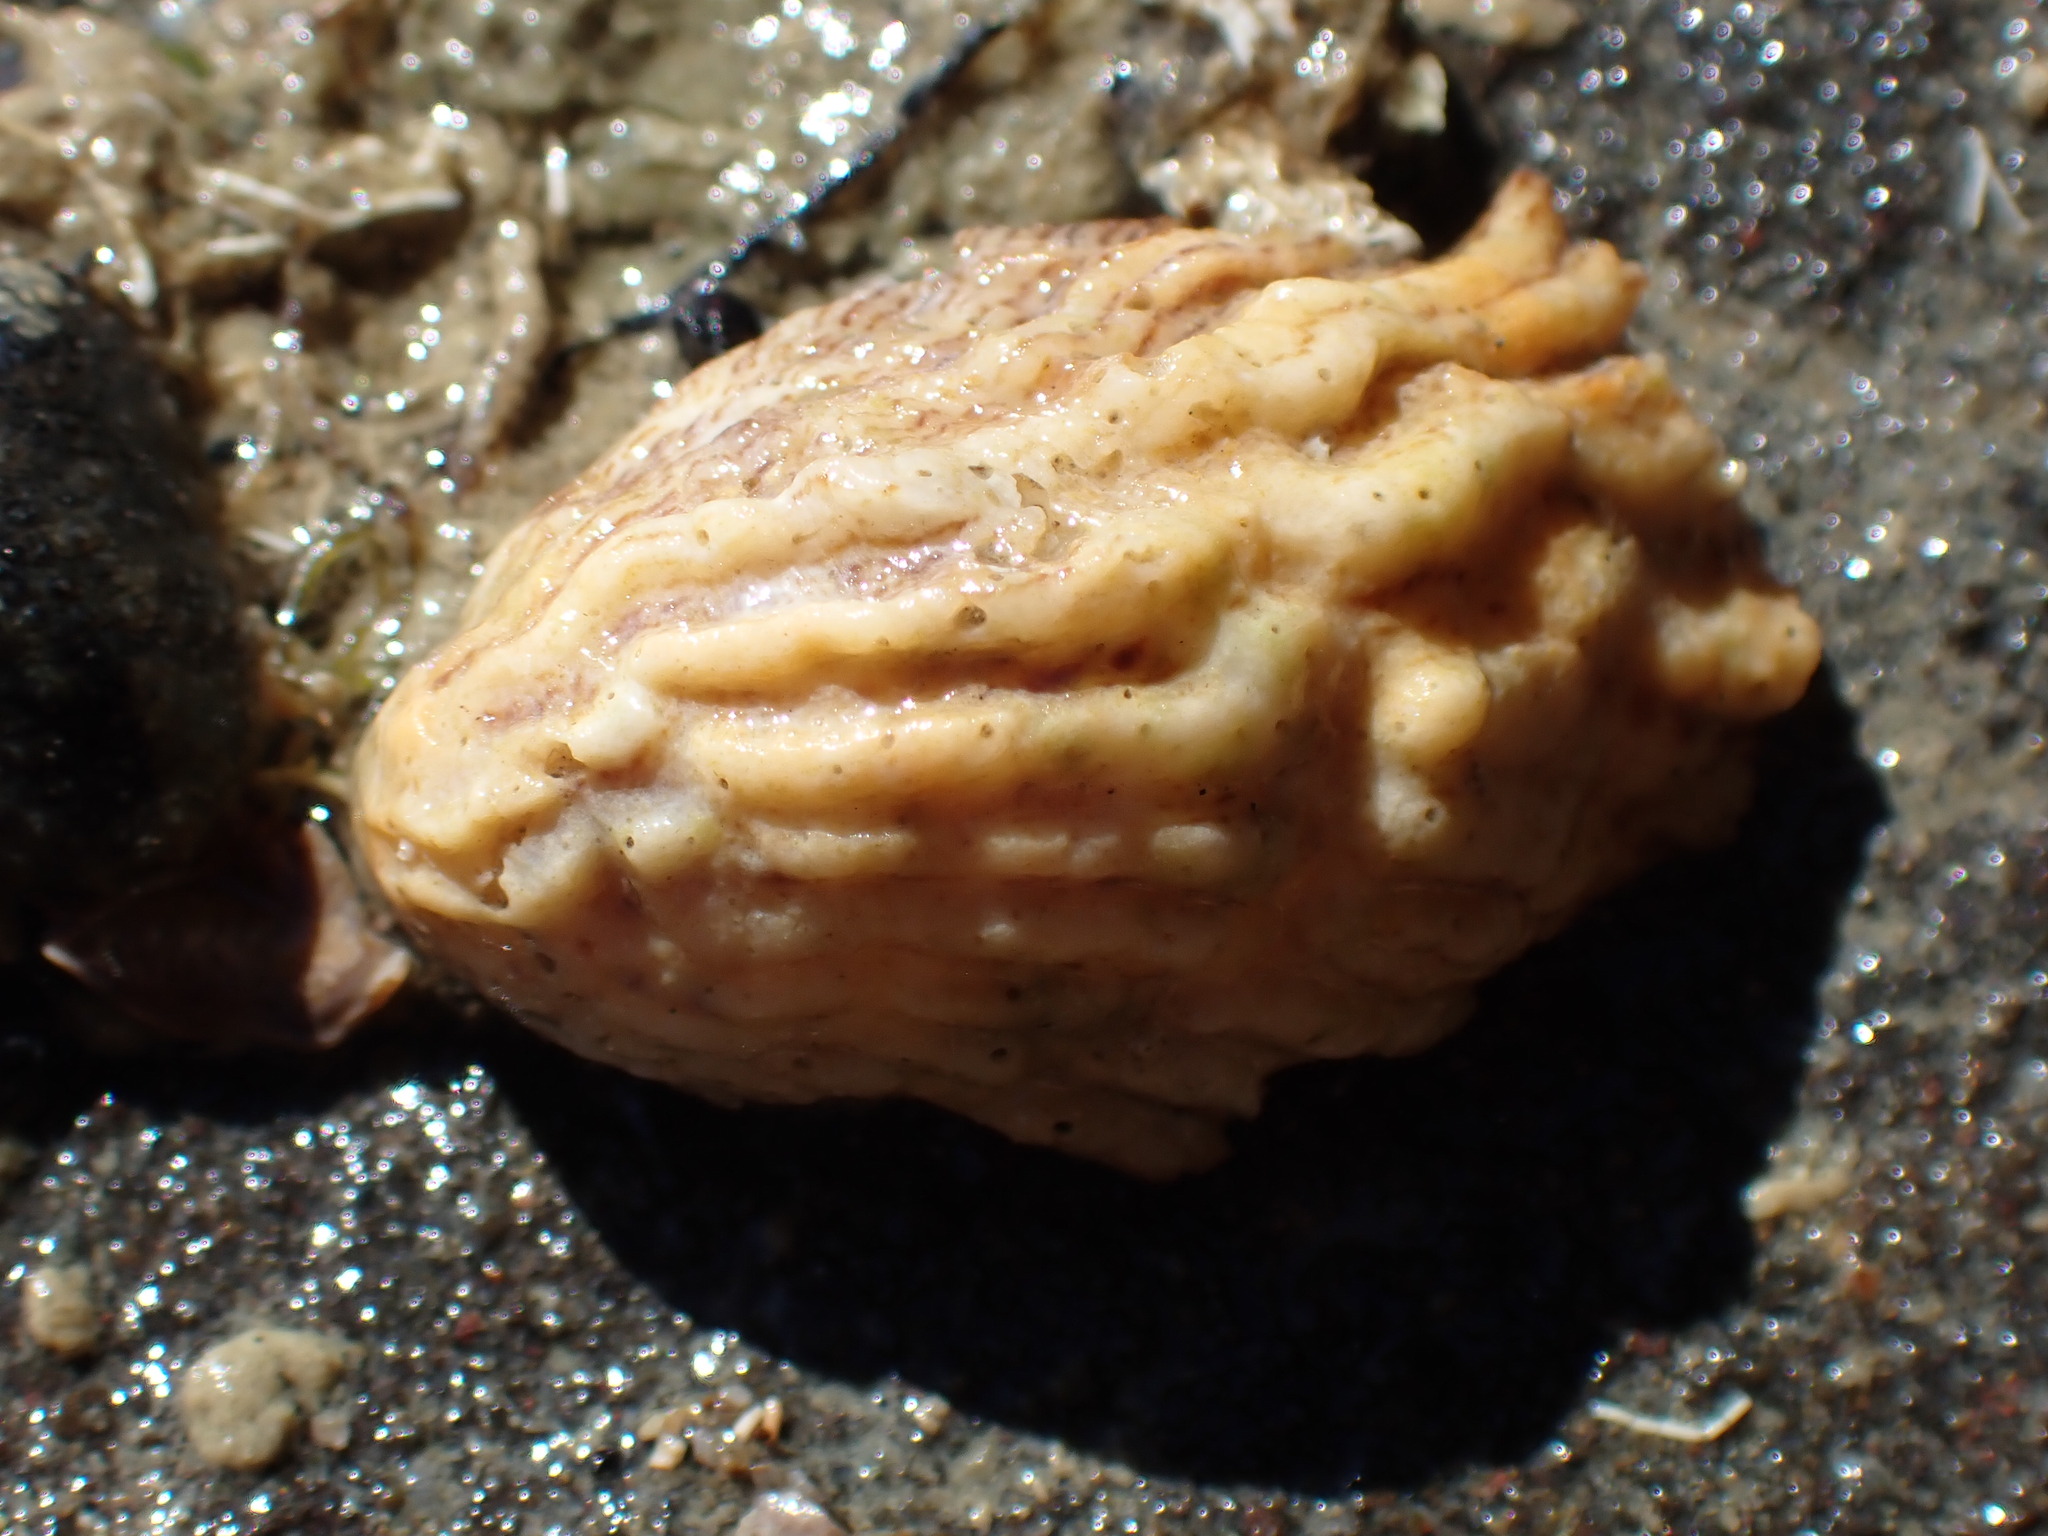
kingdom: Animalia
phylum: Mollusca
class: Gastropoda
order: Littorinimorpha
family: Calyptraeidae
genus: Maoricrypta
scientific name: Maoricrypta costata
